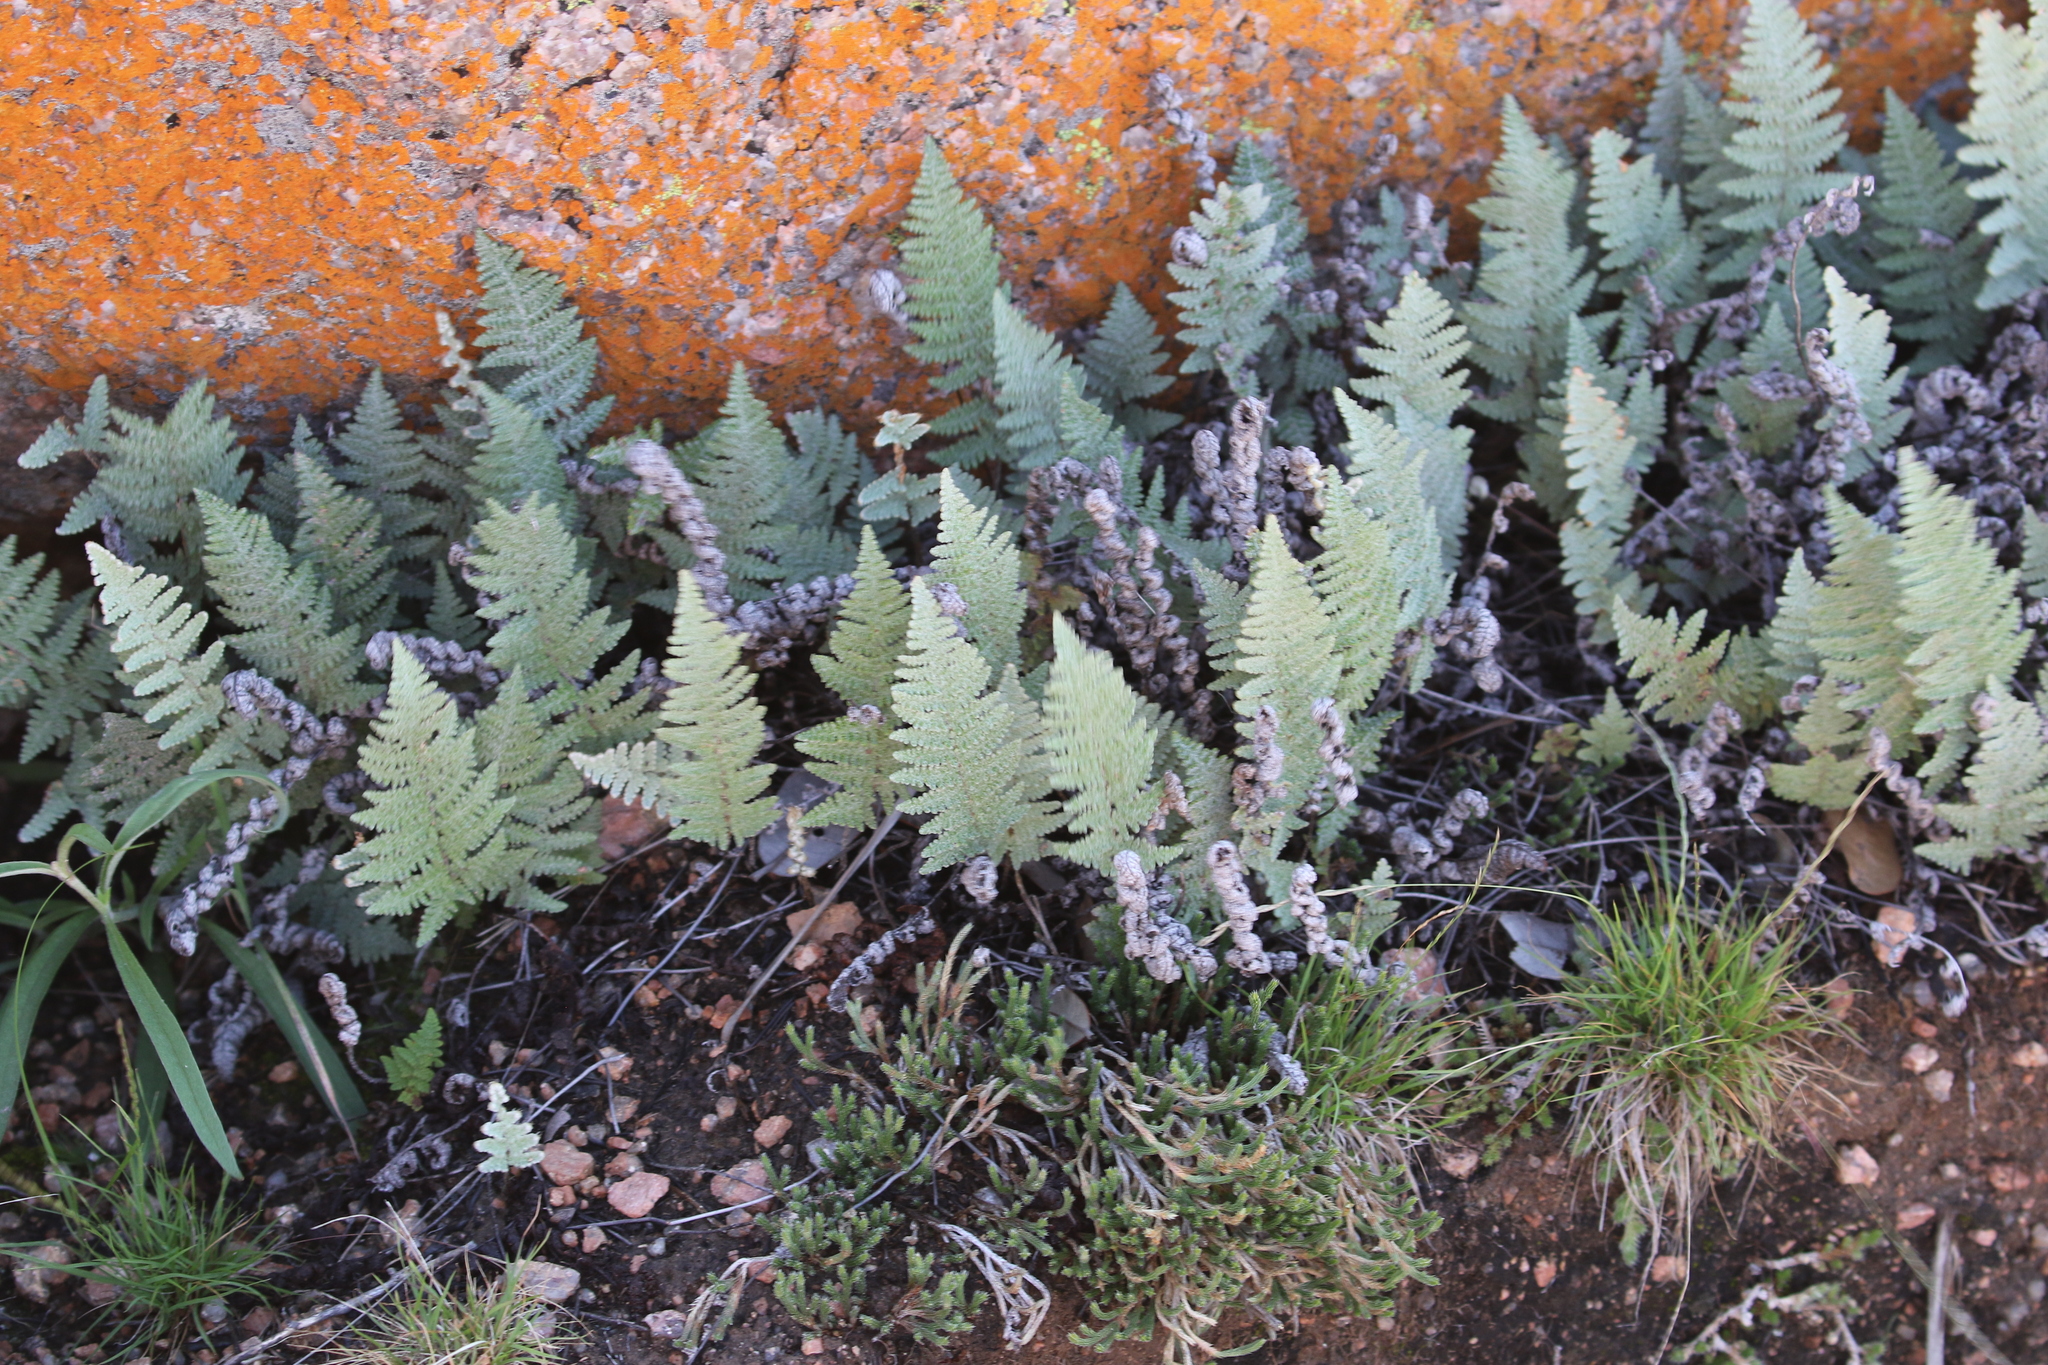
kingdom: Plantae
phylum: Tracheophyta
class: Polypodiopsida
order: Polypodiales
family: Pteridaceae
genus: Myriopteris
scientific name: Myriopteris lindheimeri
